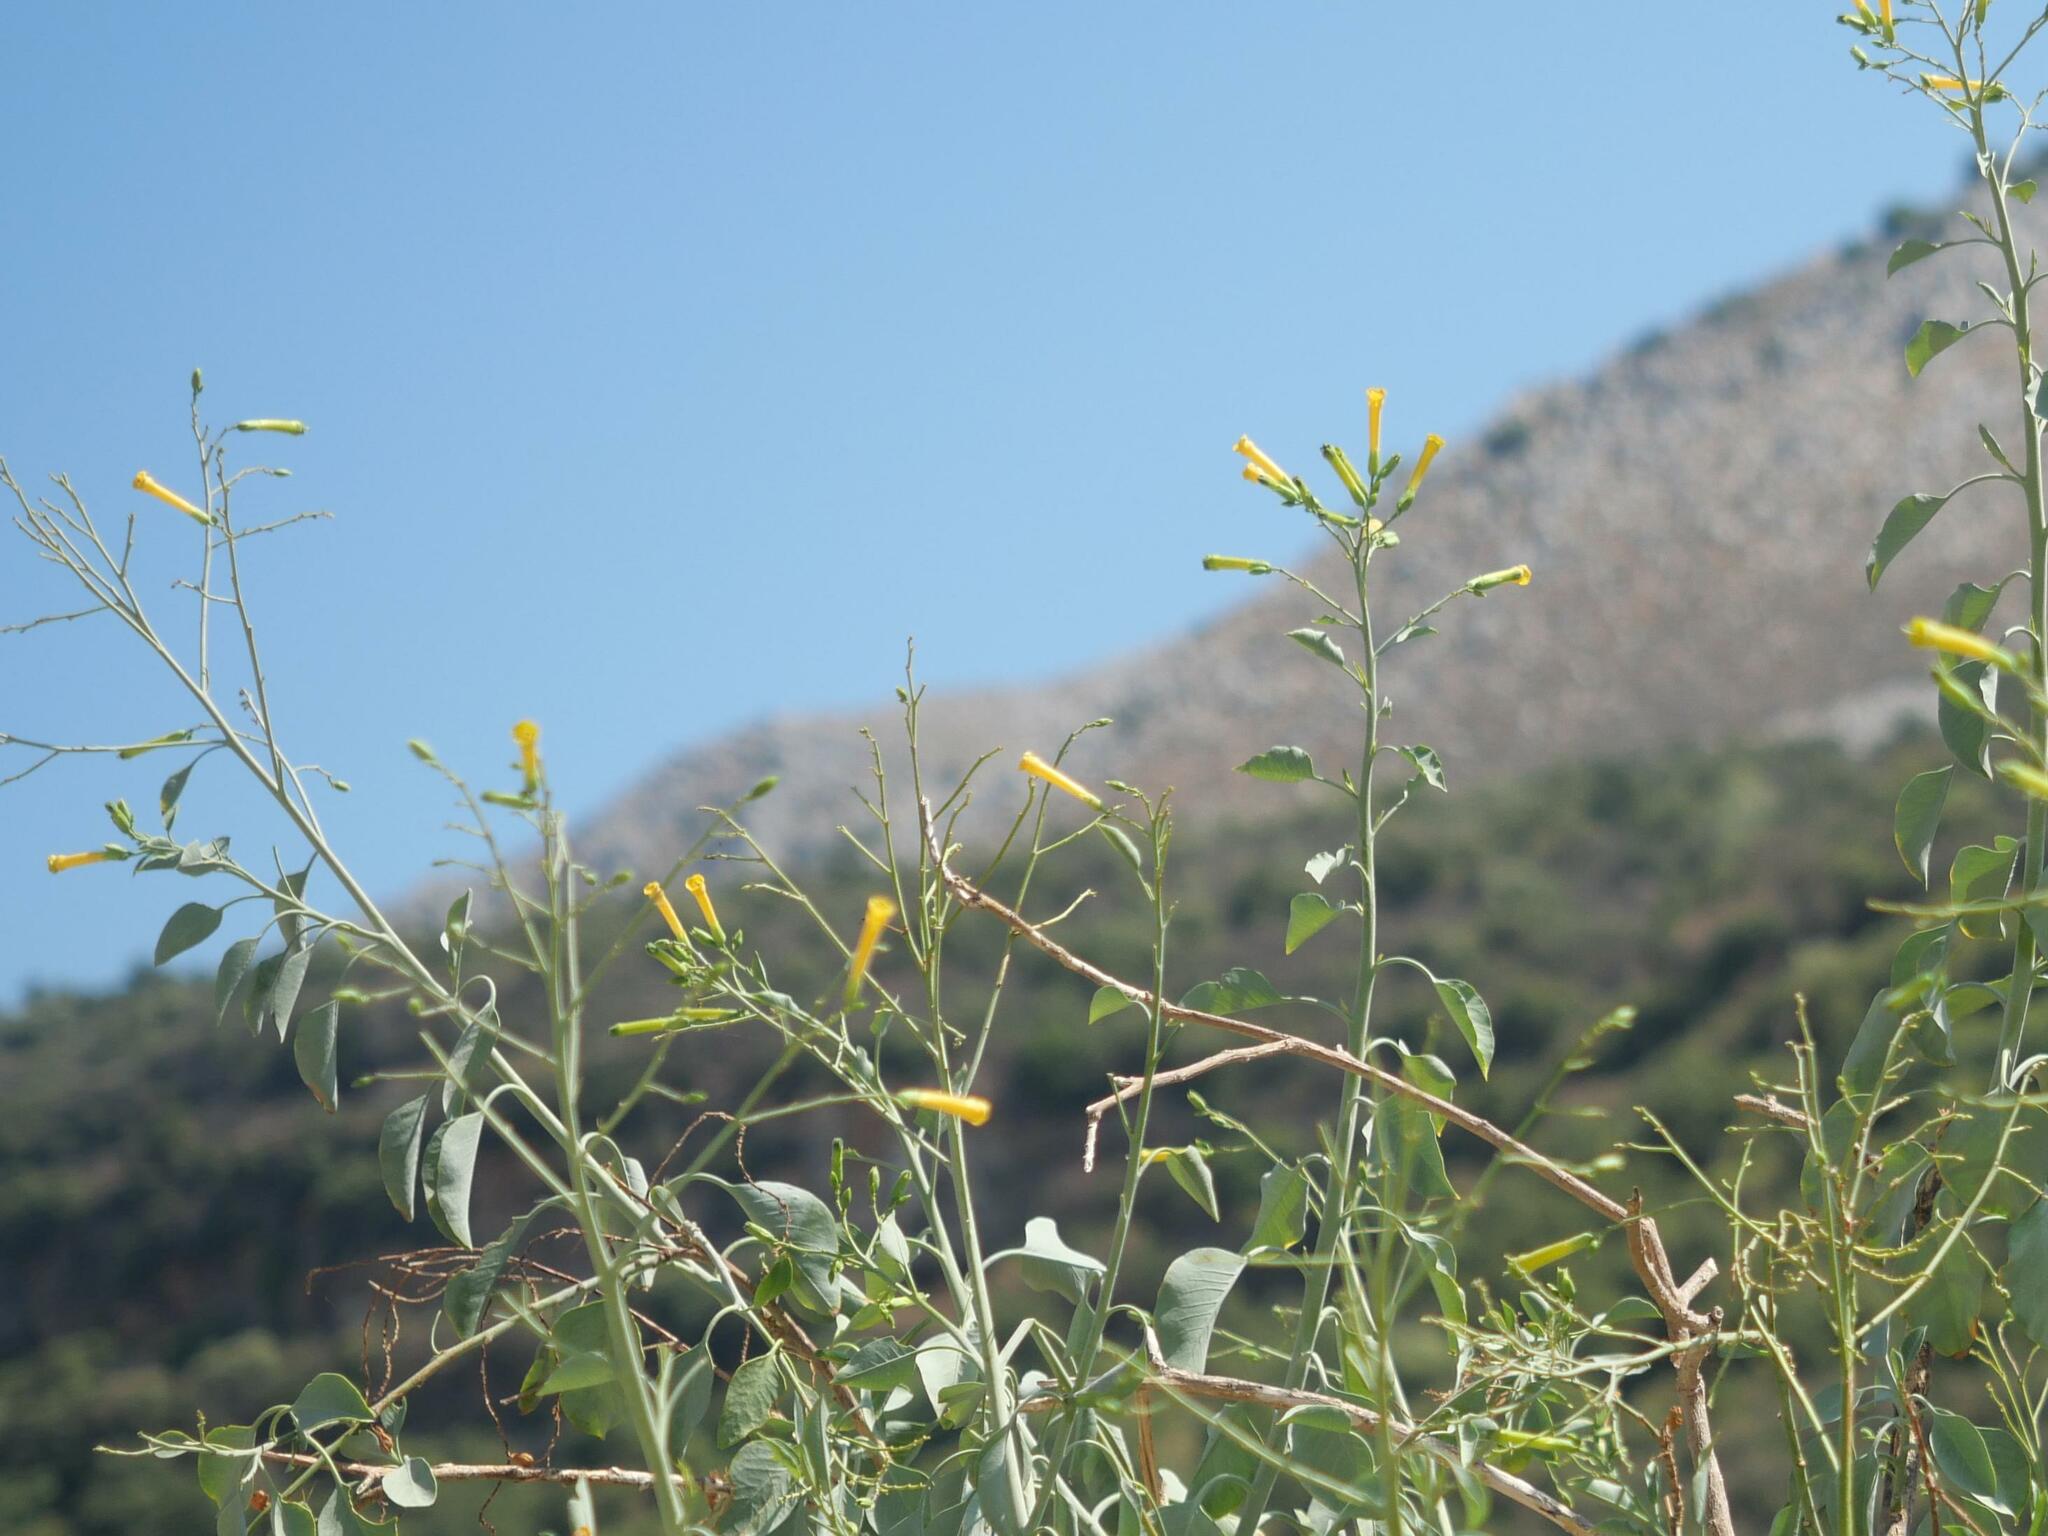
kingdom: Plantae
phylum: Tracheophyta
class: Magnoliopsida
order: Solanales
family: Solanaceae
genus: Nicotiana
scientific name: Nicotiana glauca
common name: Tree tobacco
